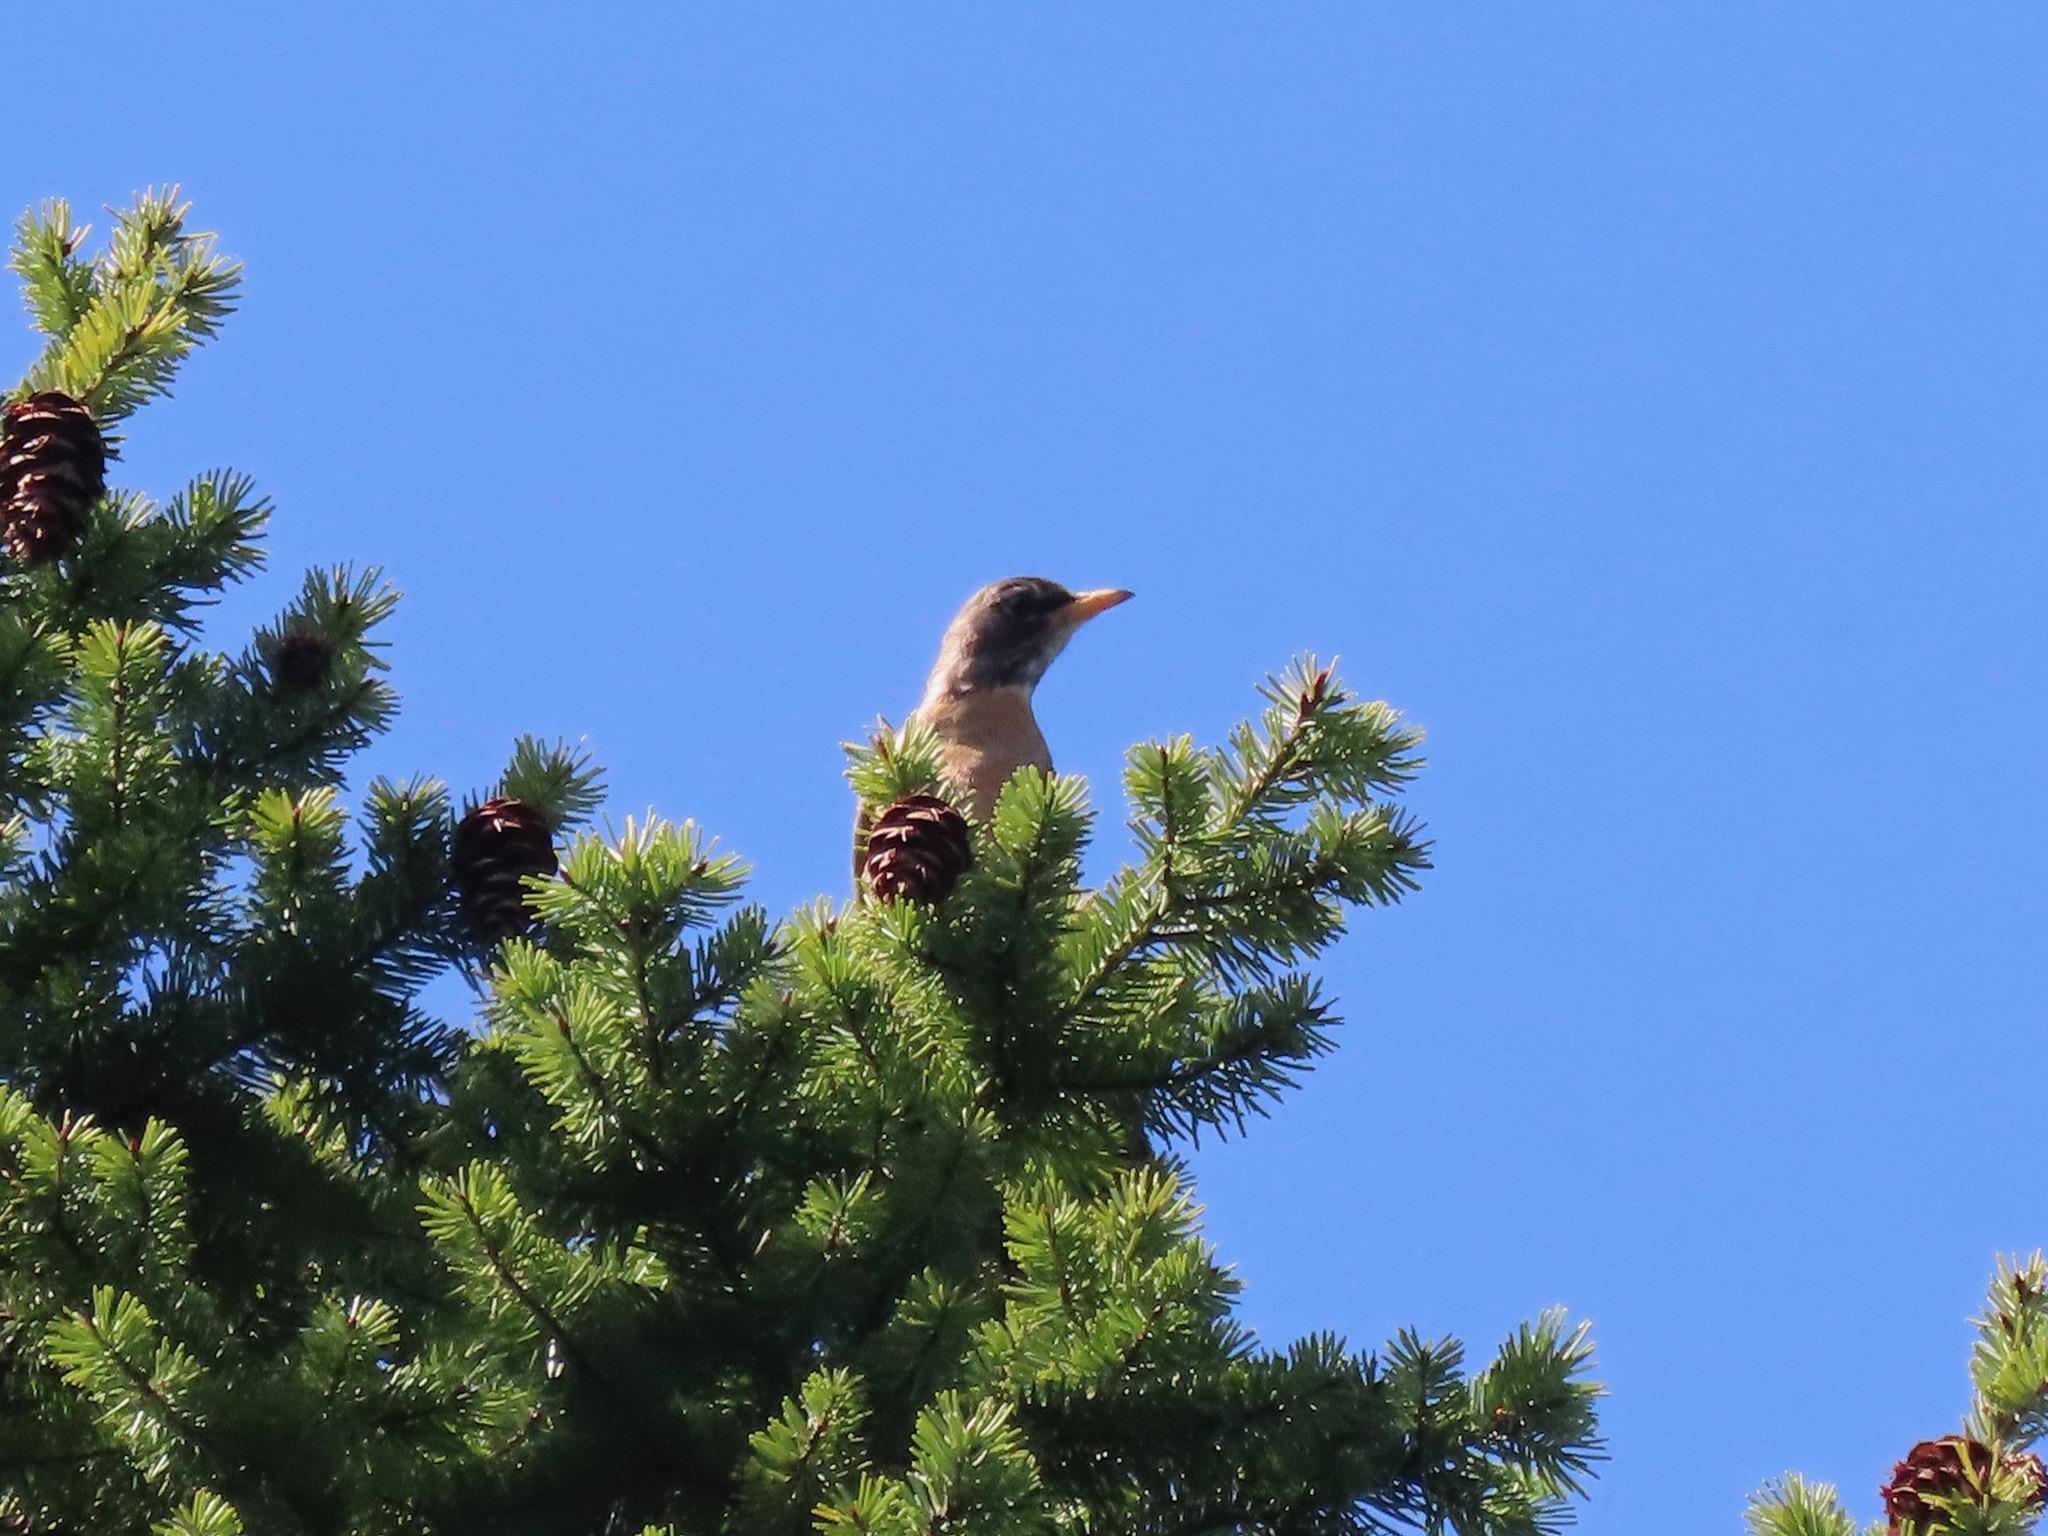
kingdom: Animalia
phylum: Chordata
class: Aves
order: Passeriformes
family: Turdidae
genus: Turdus
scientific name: Turdus migratorius
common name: American robin
